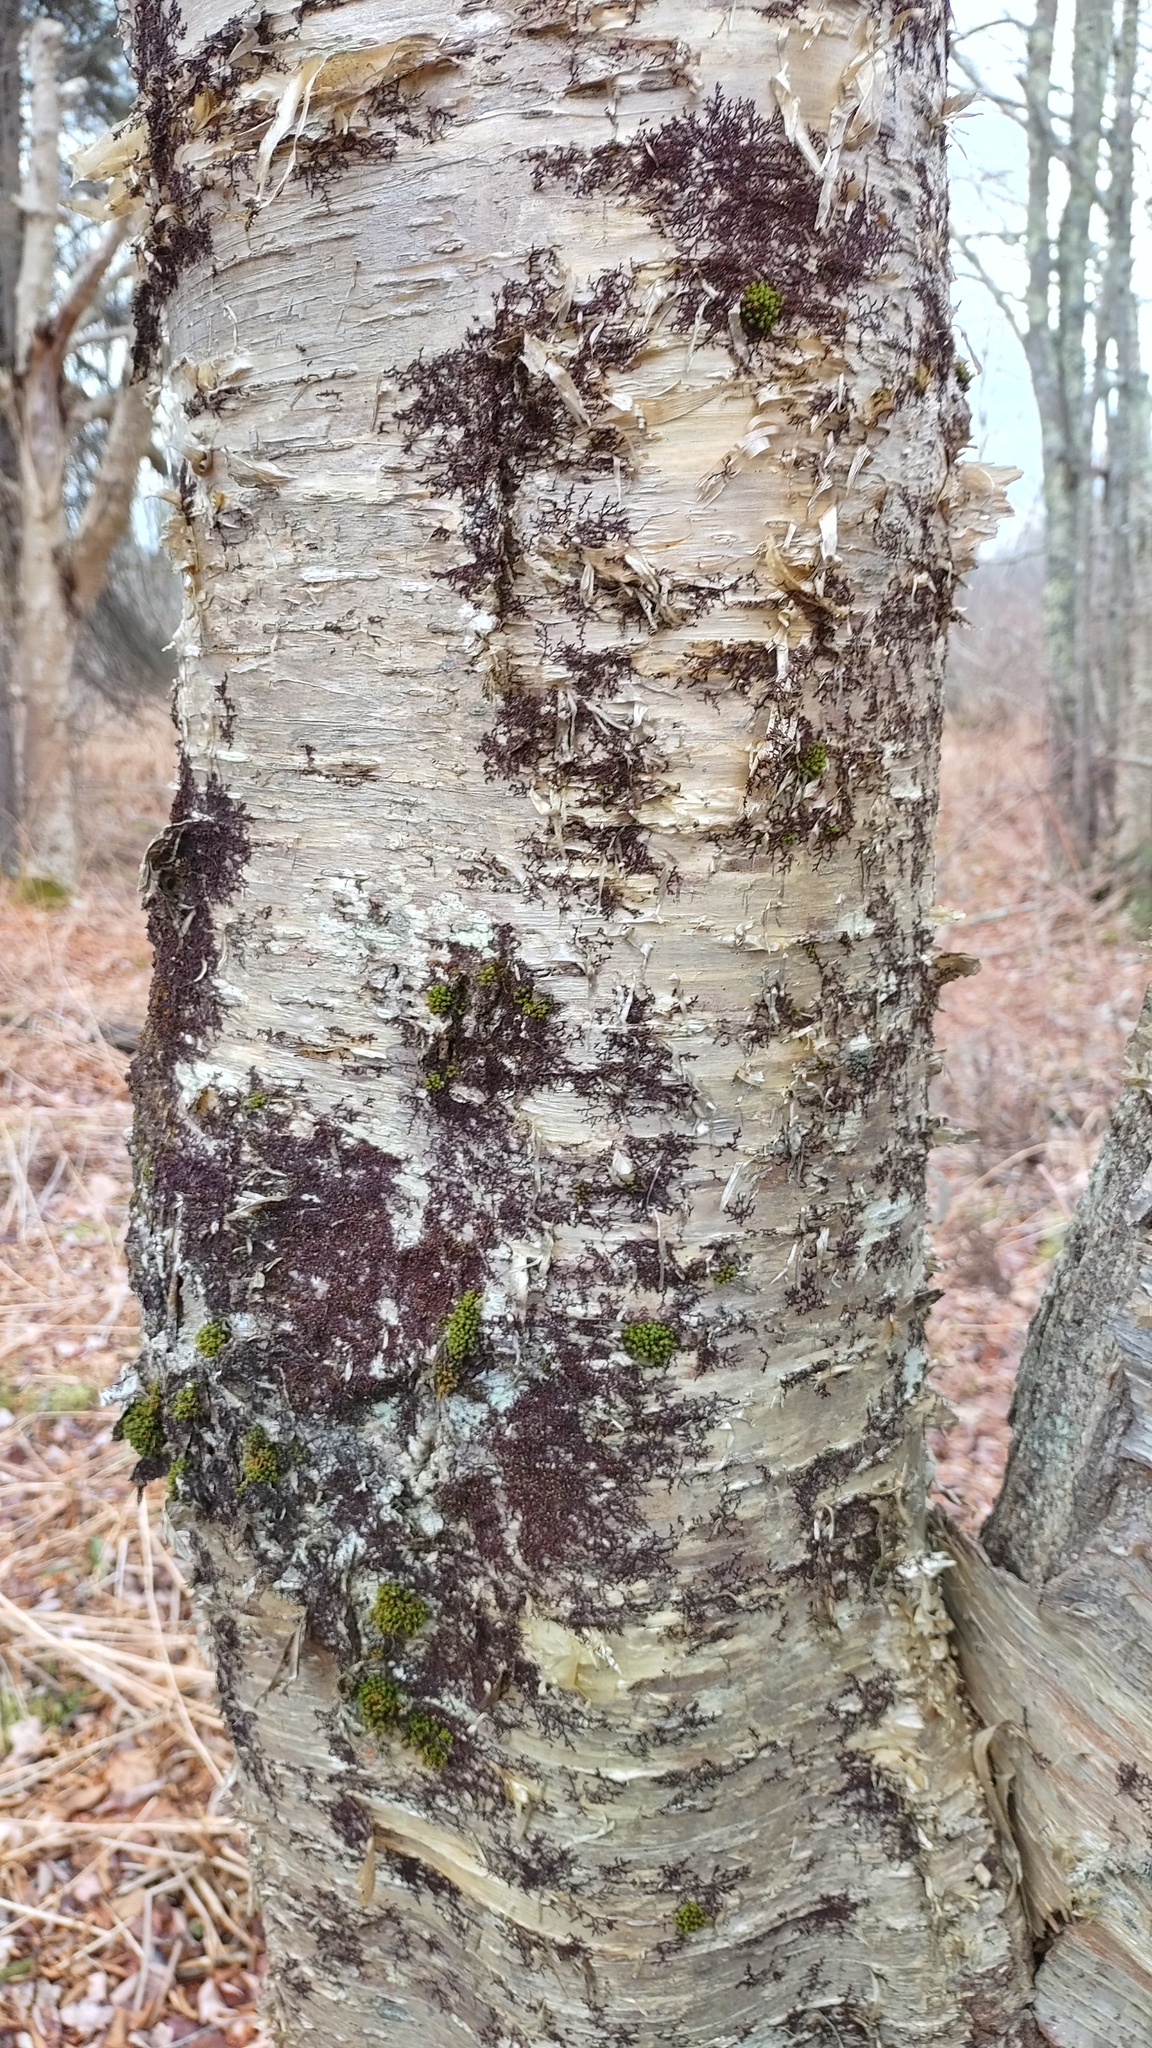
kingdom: Plantae
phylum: Tracheophyta
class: Magnoliopsida
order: Fagales
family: Betulaceae
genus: Betula
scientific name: Betula alleghaniensis
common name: Yellow birch
